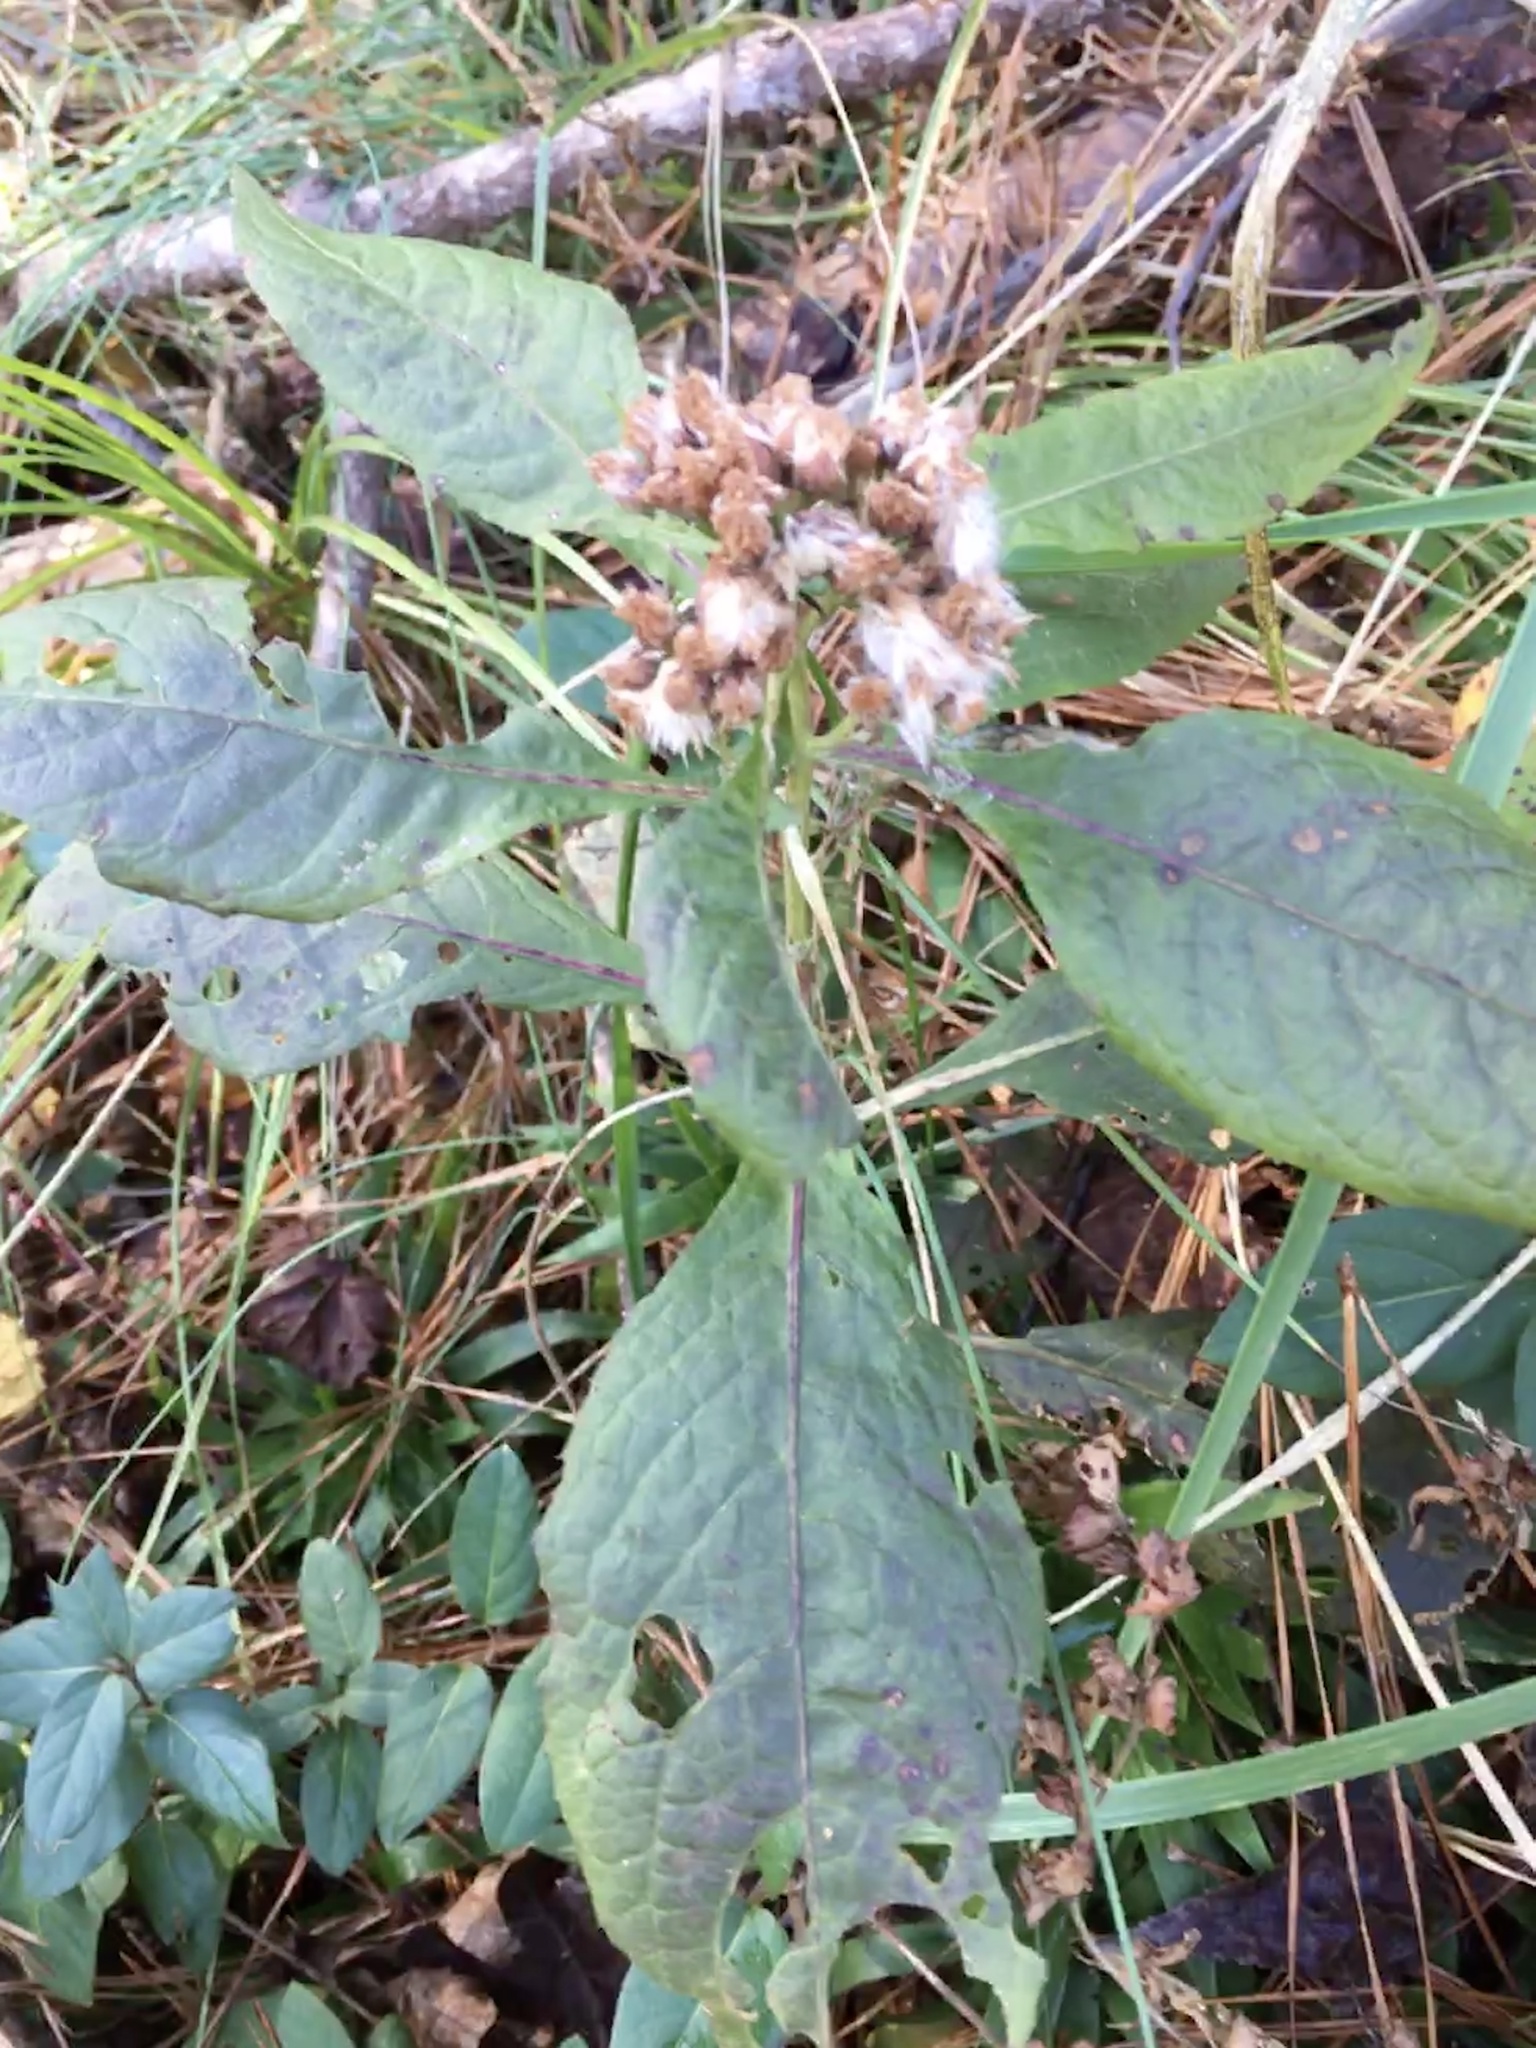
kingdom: Plantae
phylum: Tracheophyta
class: Magnoliopsida
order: Asterales
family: Asteraceae
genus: Pluchea
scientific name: Pluchea camphorata
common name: Camphor pluchea
